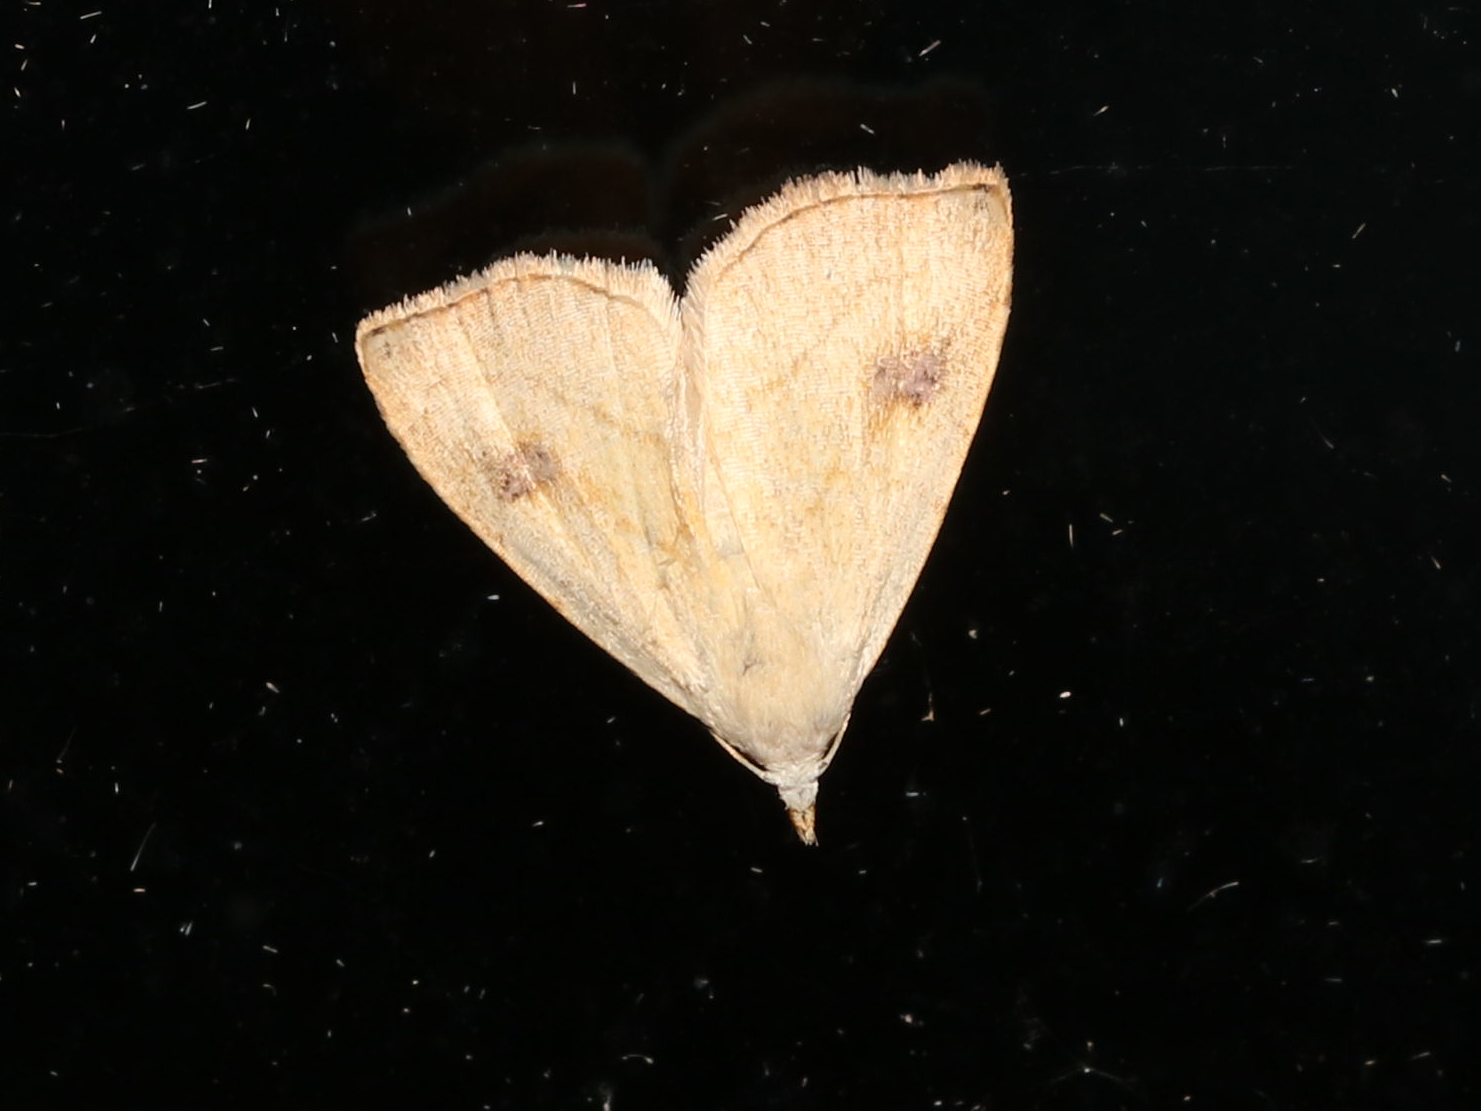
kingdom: Animalia
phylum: Arthropoda
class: Insecta
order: Lepidoptera
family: Erebidae
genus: Rivula
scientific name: Rivula propinqualis
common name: Spotted grass moth
